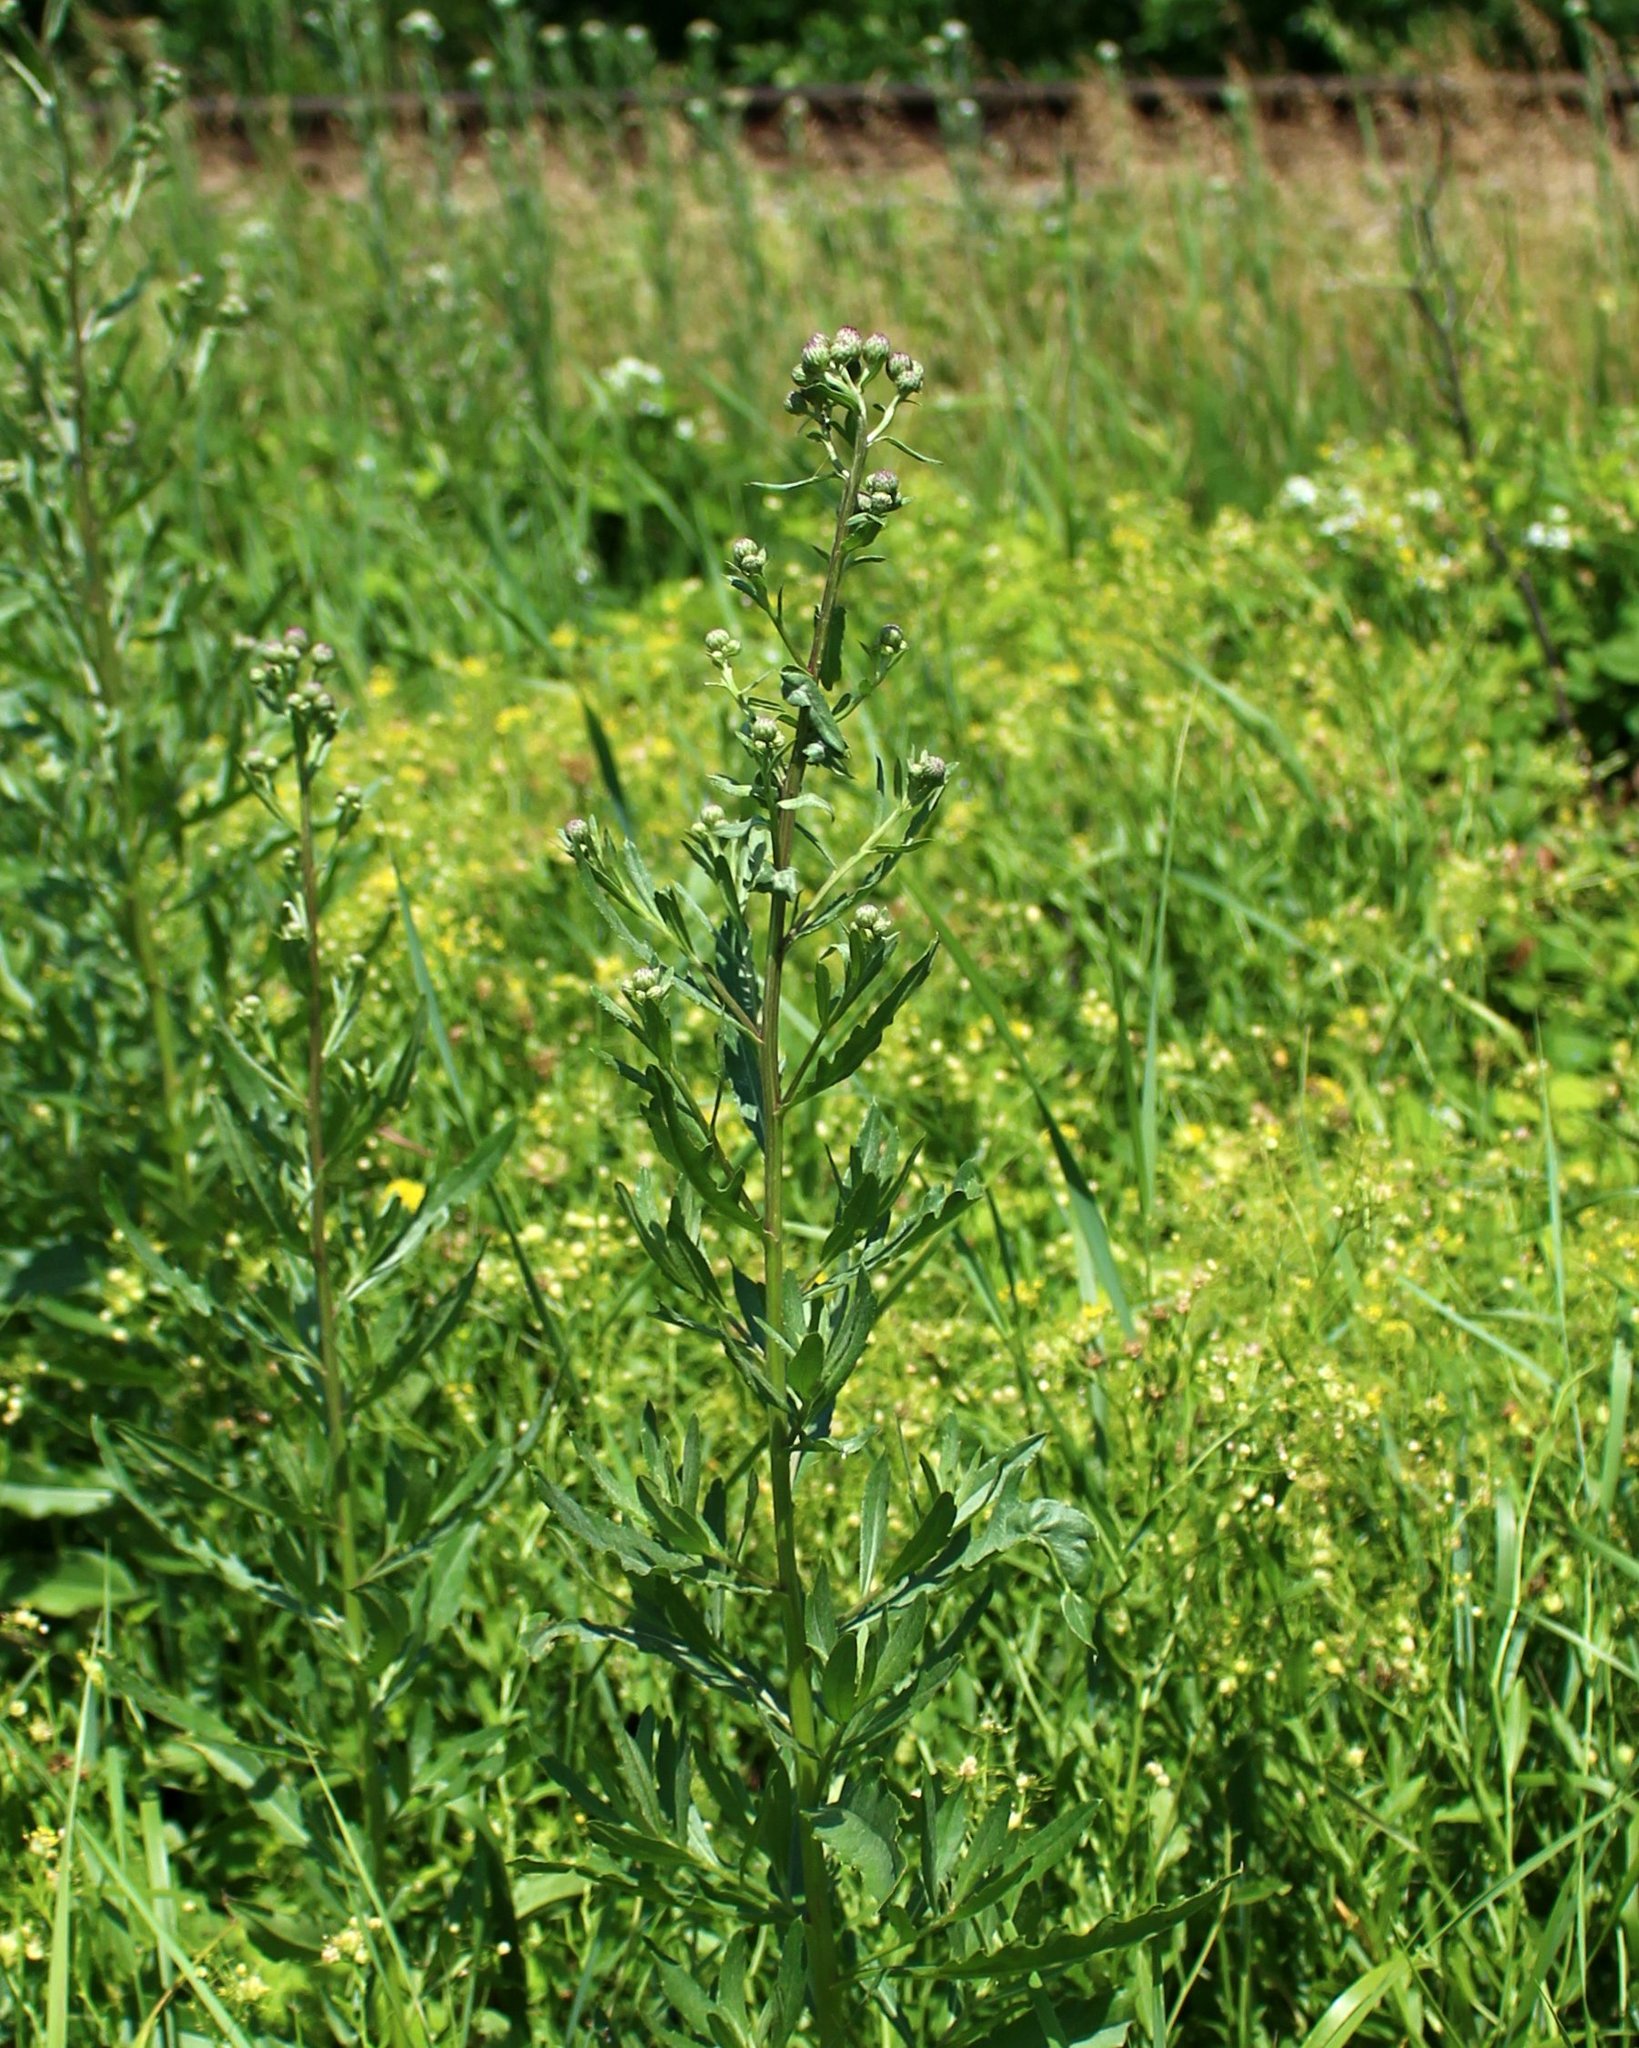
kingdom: Plantae
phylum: Tracheophyta
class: Magnoliopsida
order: Asterales
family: Asteraceae
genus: Cirsium
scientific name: Cirsium arvense
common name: Creeping thistle
